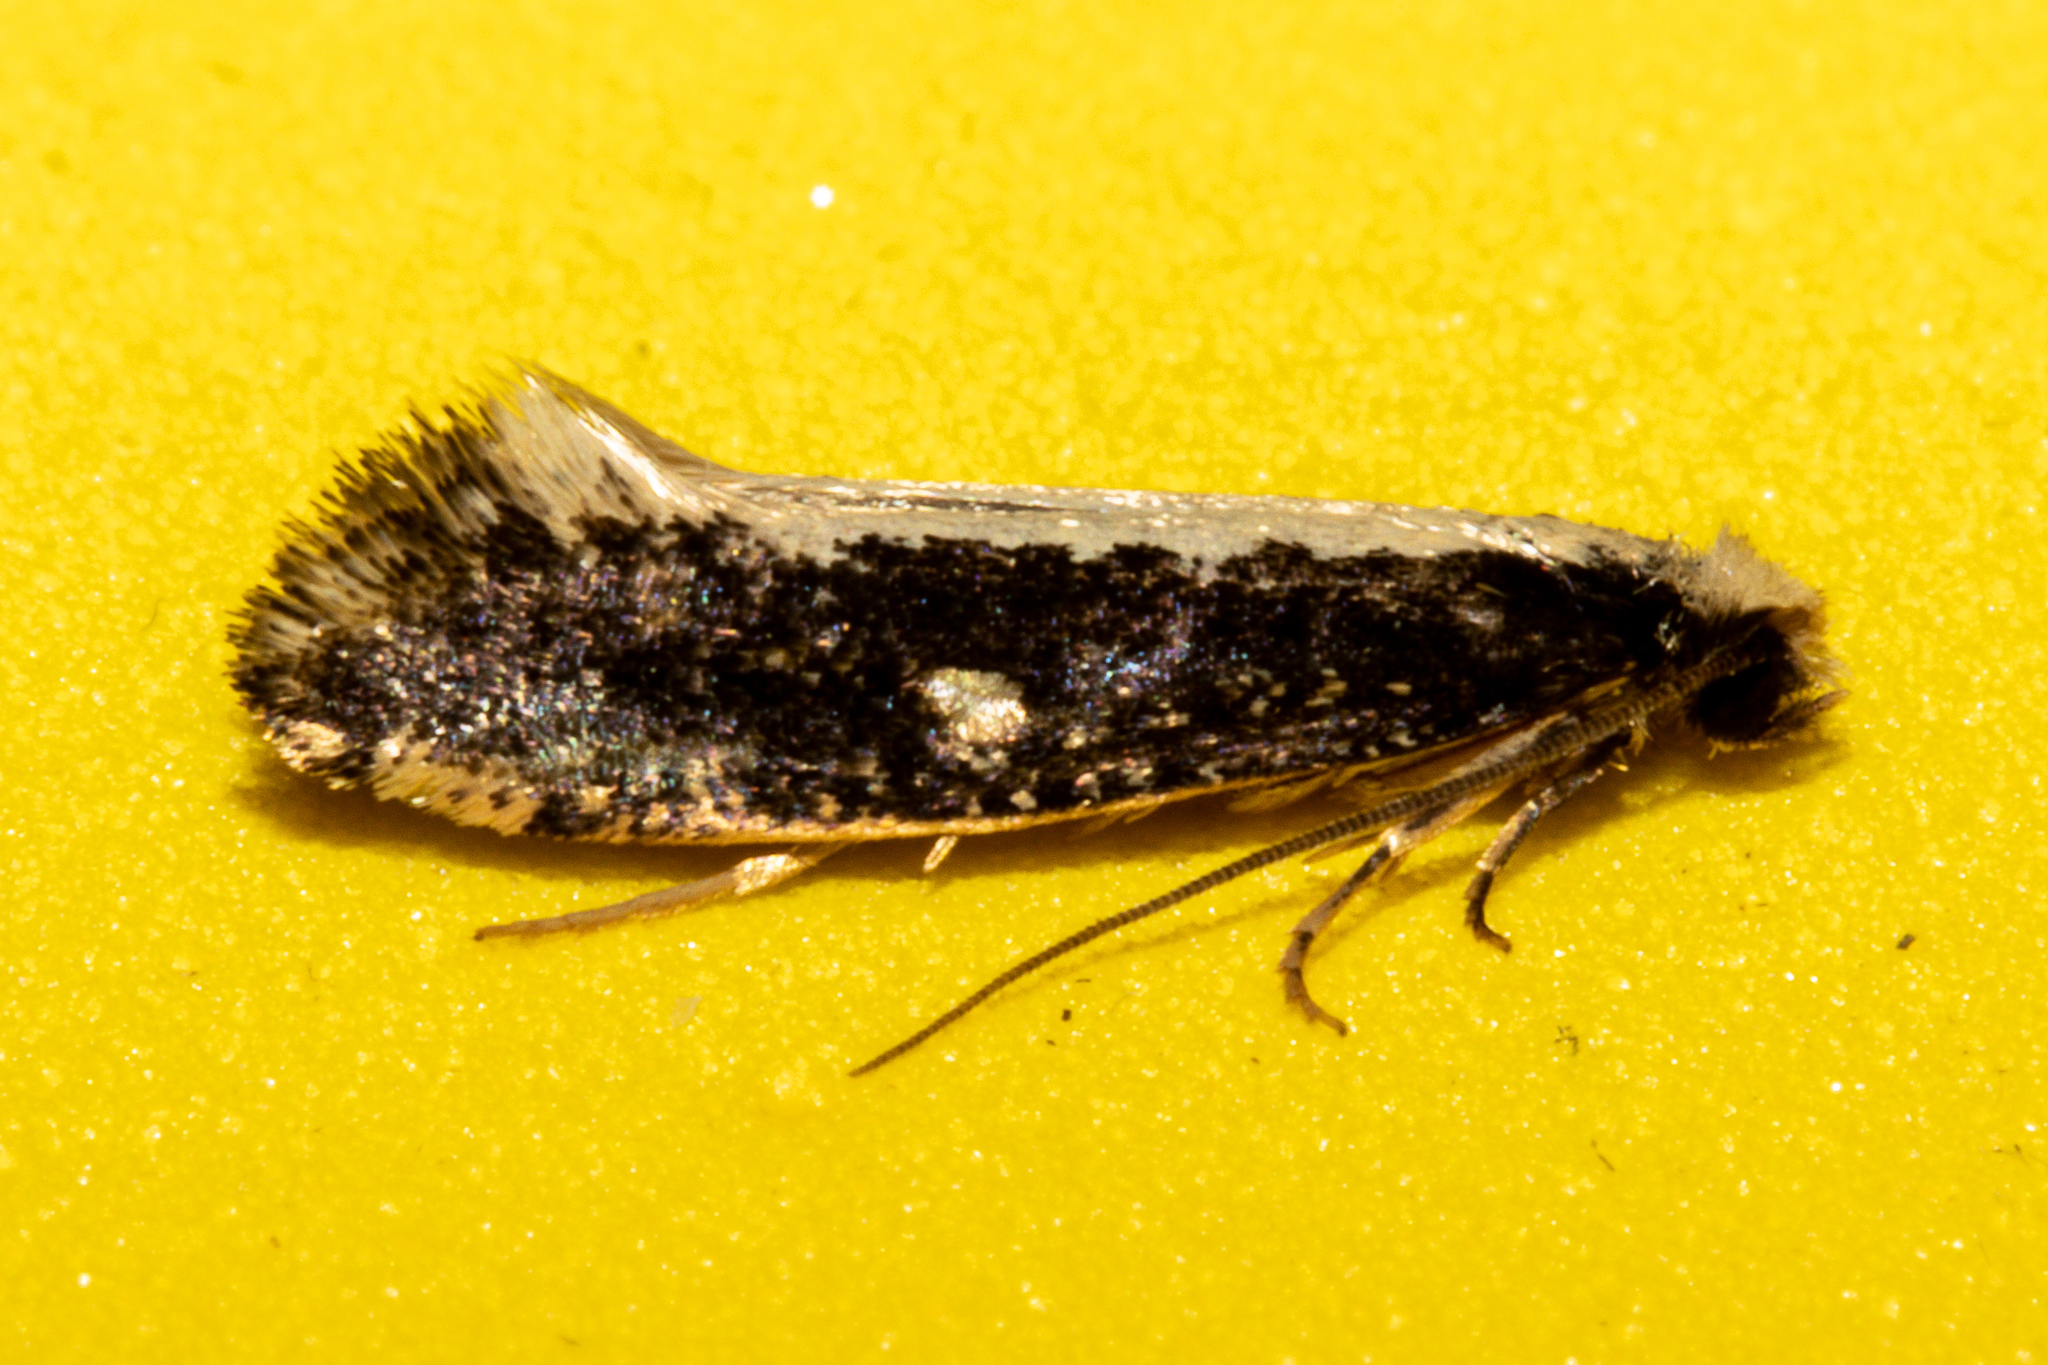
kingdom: Animalia
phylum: Arthropoda
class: Insecta
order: Lepidoptera
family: Tineidae
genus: Monopis
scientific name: Monopis ethelella
